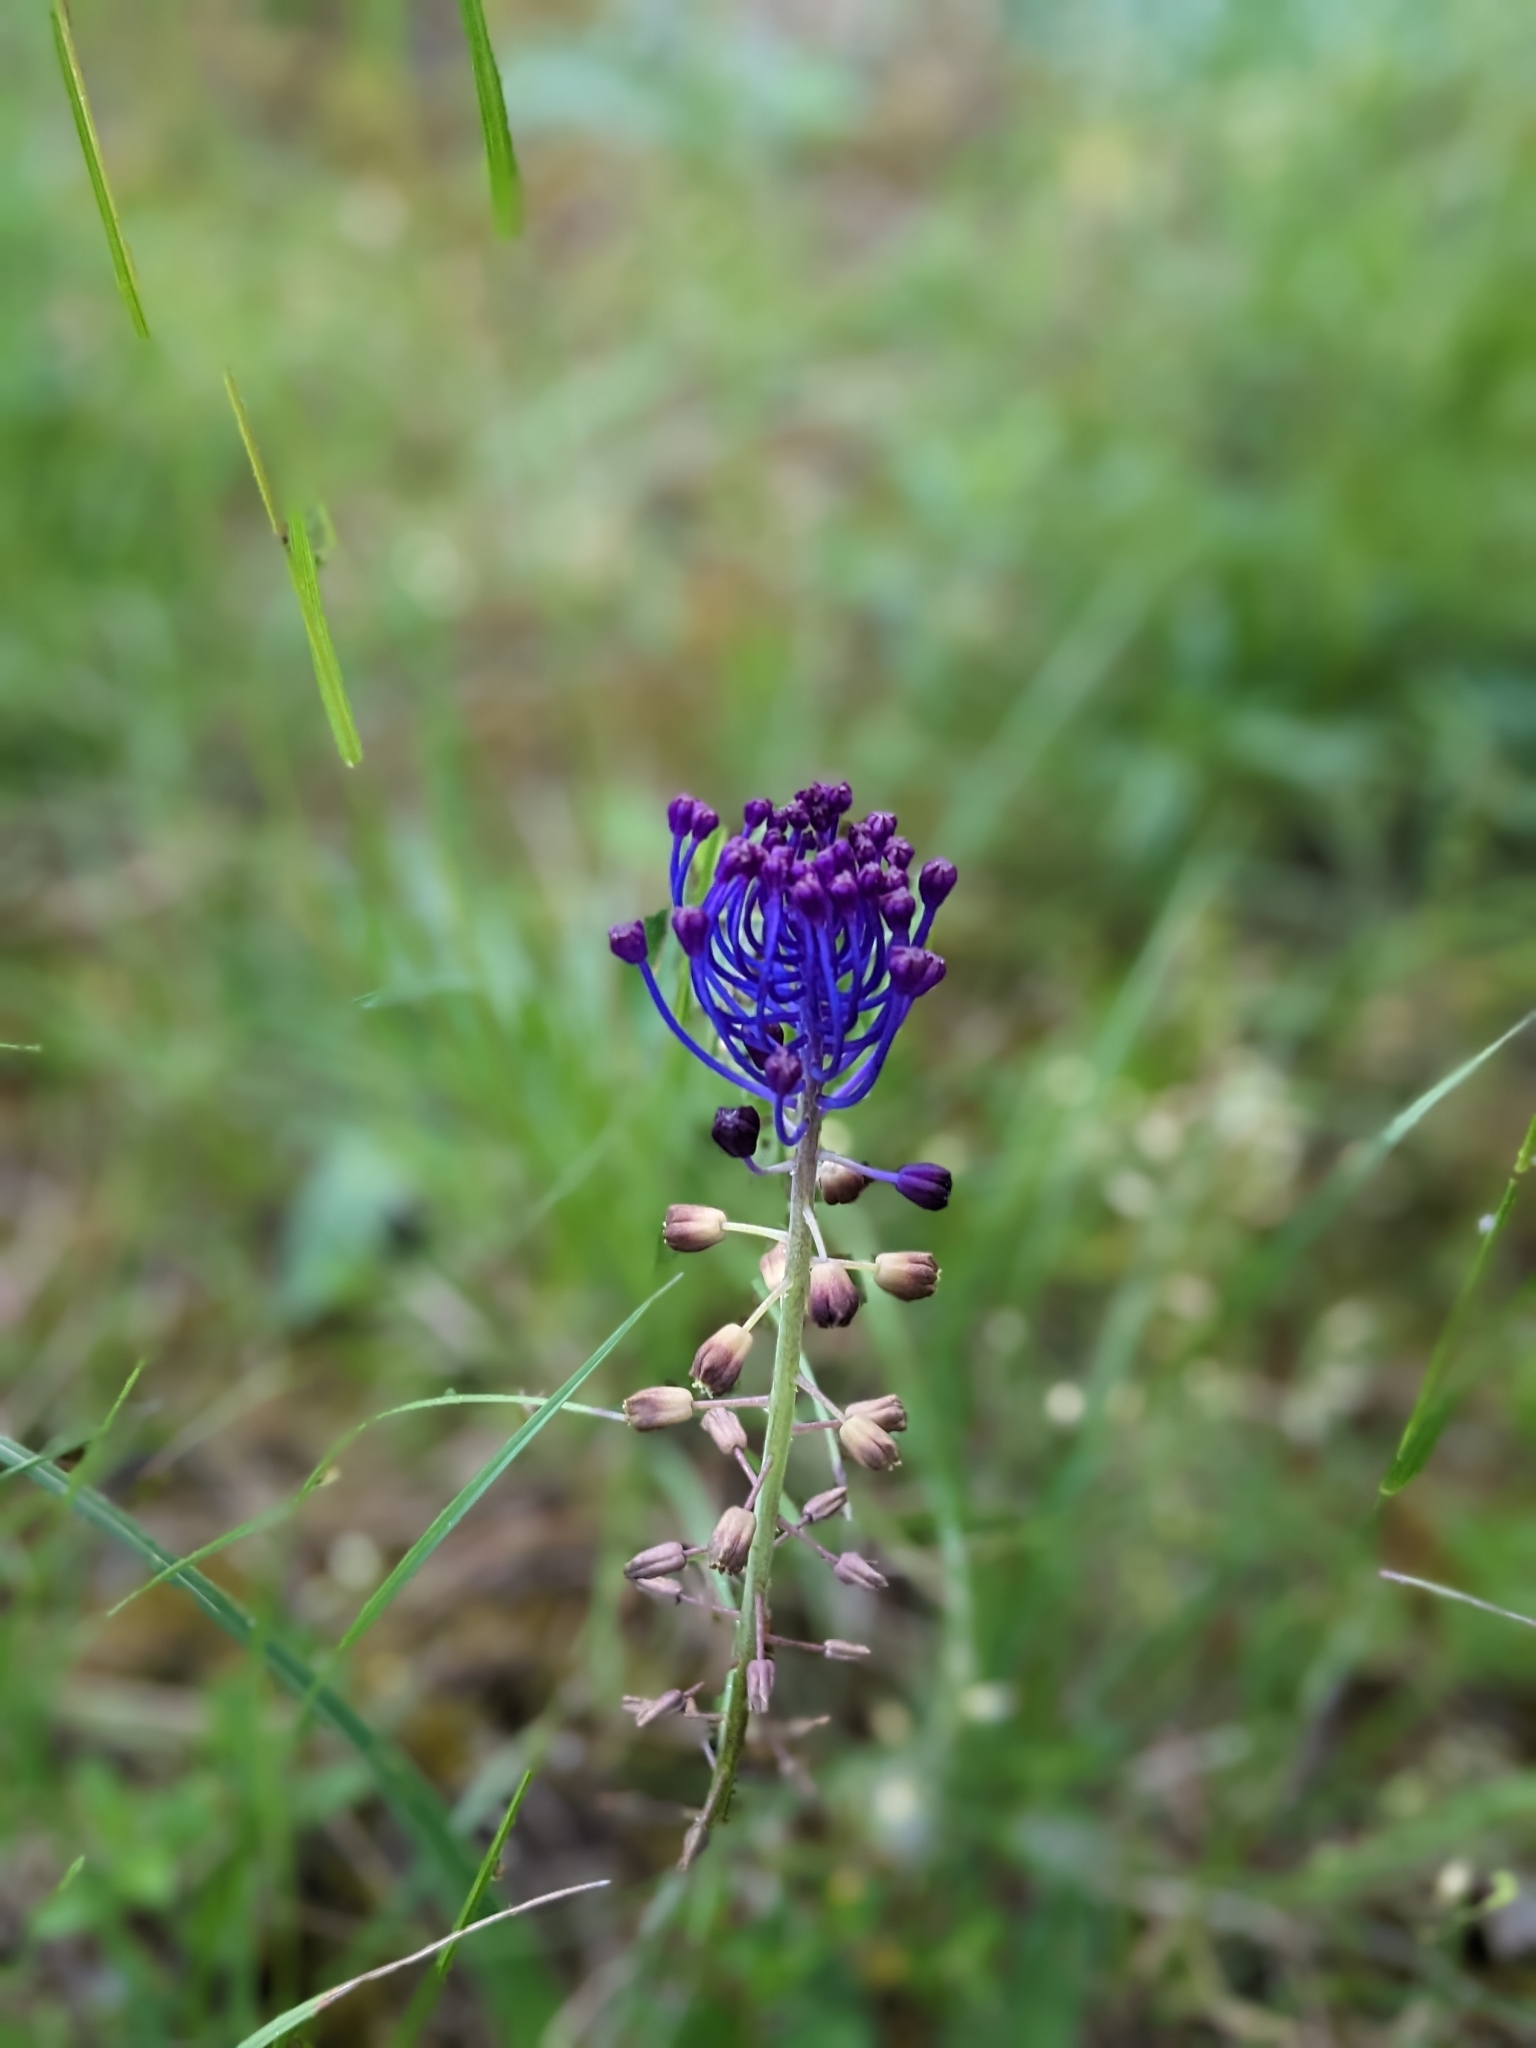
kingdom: Plantae
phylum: Tracheophyta
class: Liliopsida
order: Asparagales
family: Asparagaceae
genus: Muscari
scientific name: Muscari comosum
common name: Tassel hyacinth
